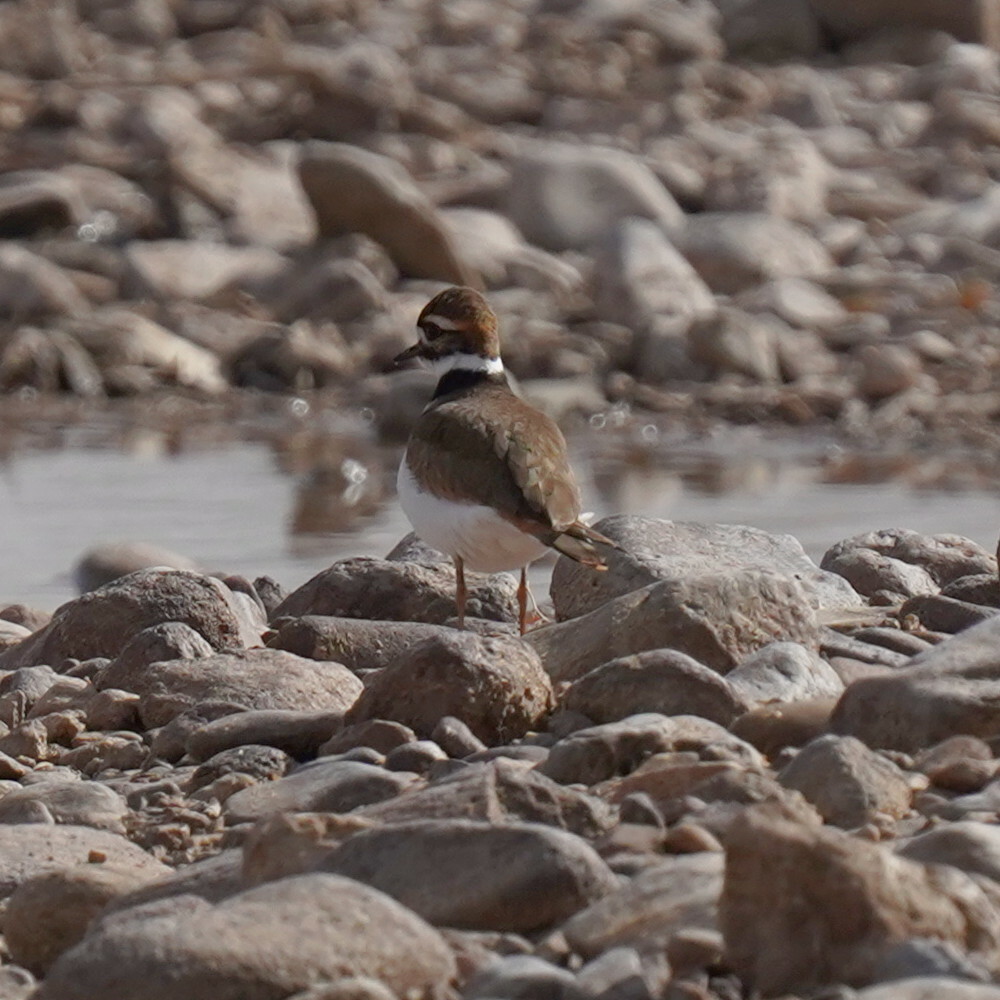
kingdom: Animalia
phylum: Chordata
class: Aves
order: Charadriiformes
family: Charadriidae
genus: Charadrius
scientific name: Charadrius vociferus
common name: Killdeer
